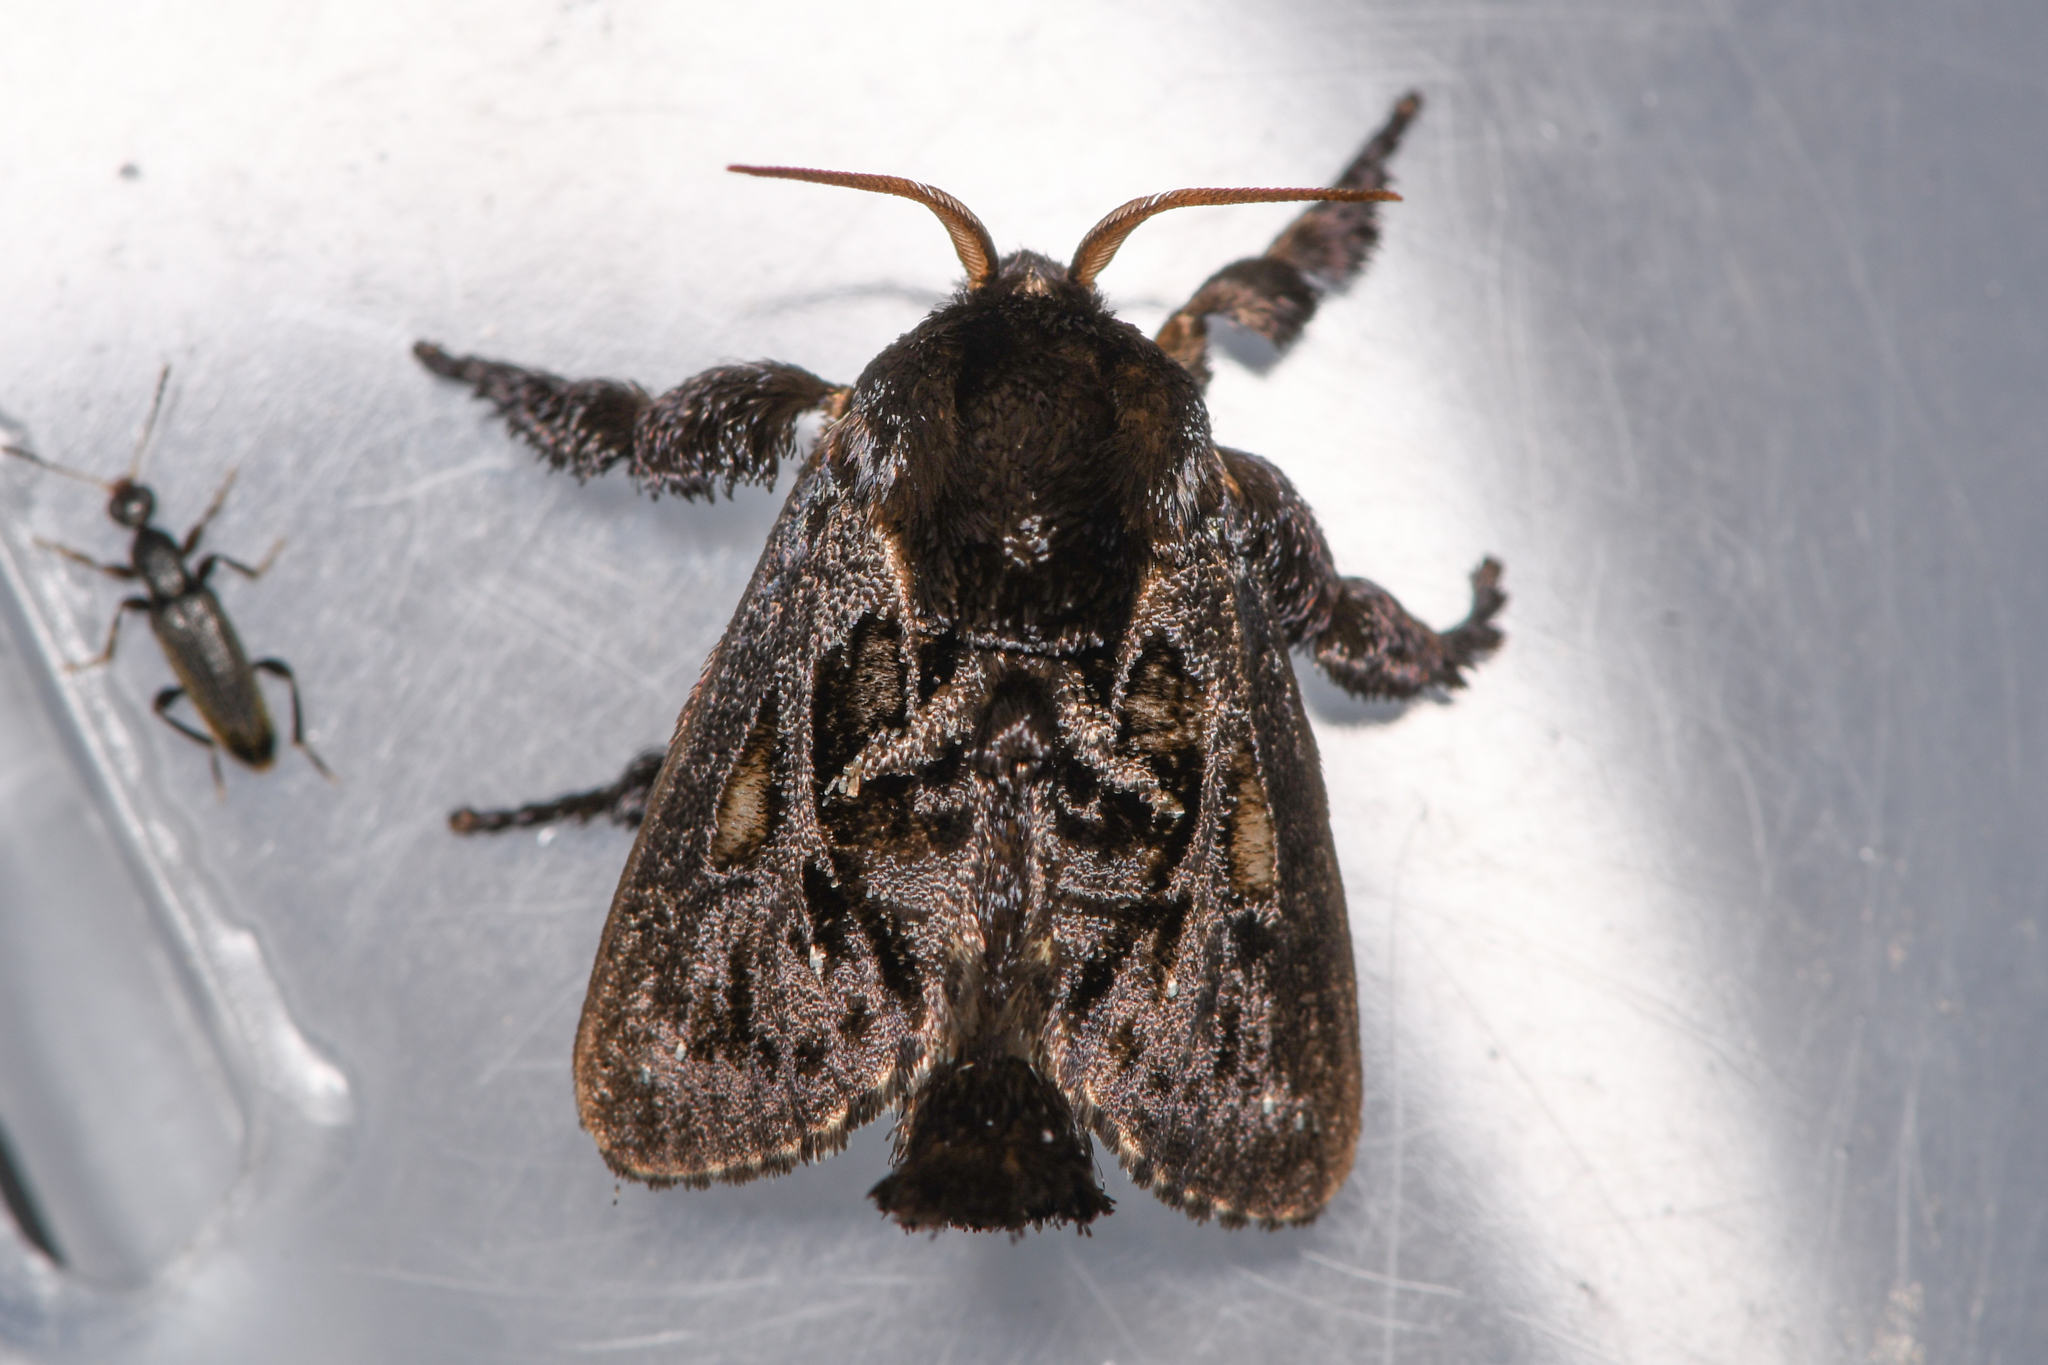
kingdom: Animalia
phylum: Arthropoda
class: Insecta
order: Lepidoptera
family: Limacodidae
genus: Euclea
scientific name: Euclea
